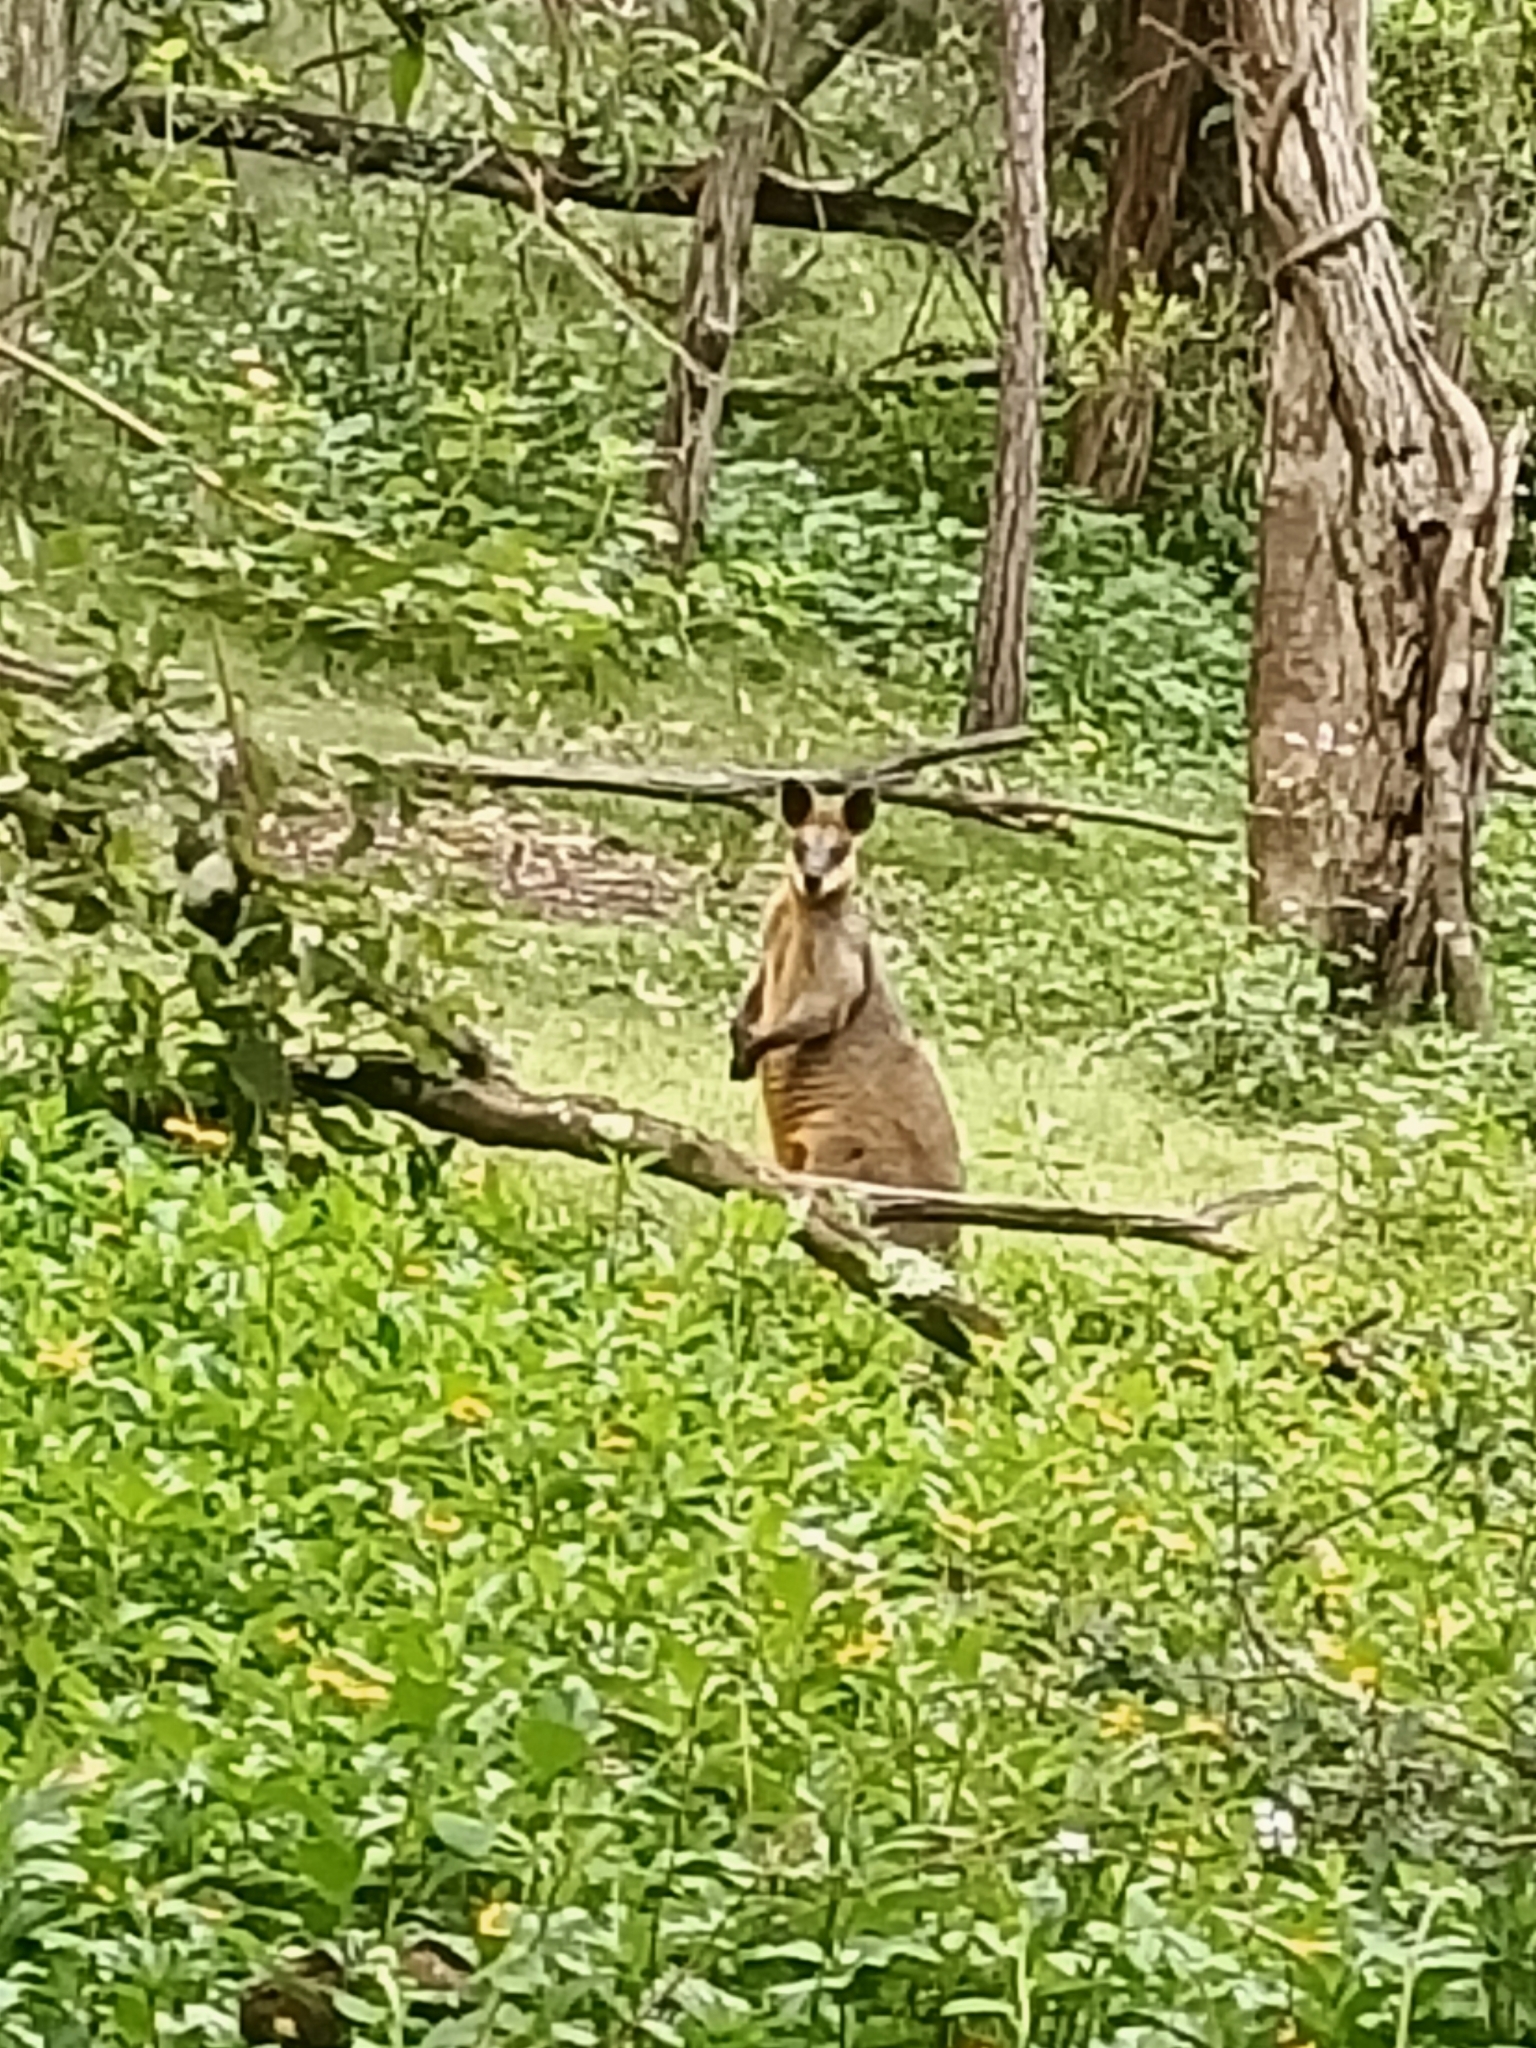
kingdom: Animalia
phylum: Chordata
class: Mammalia
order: Diprotodontia
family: Macropodidae
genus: Wallabia
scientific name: Wallabia bicolor
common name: Swamp wallaby
